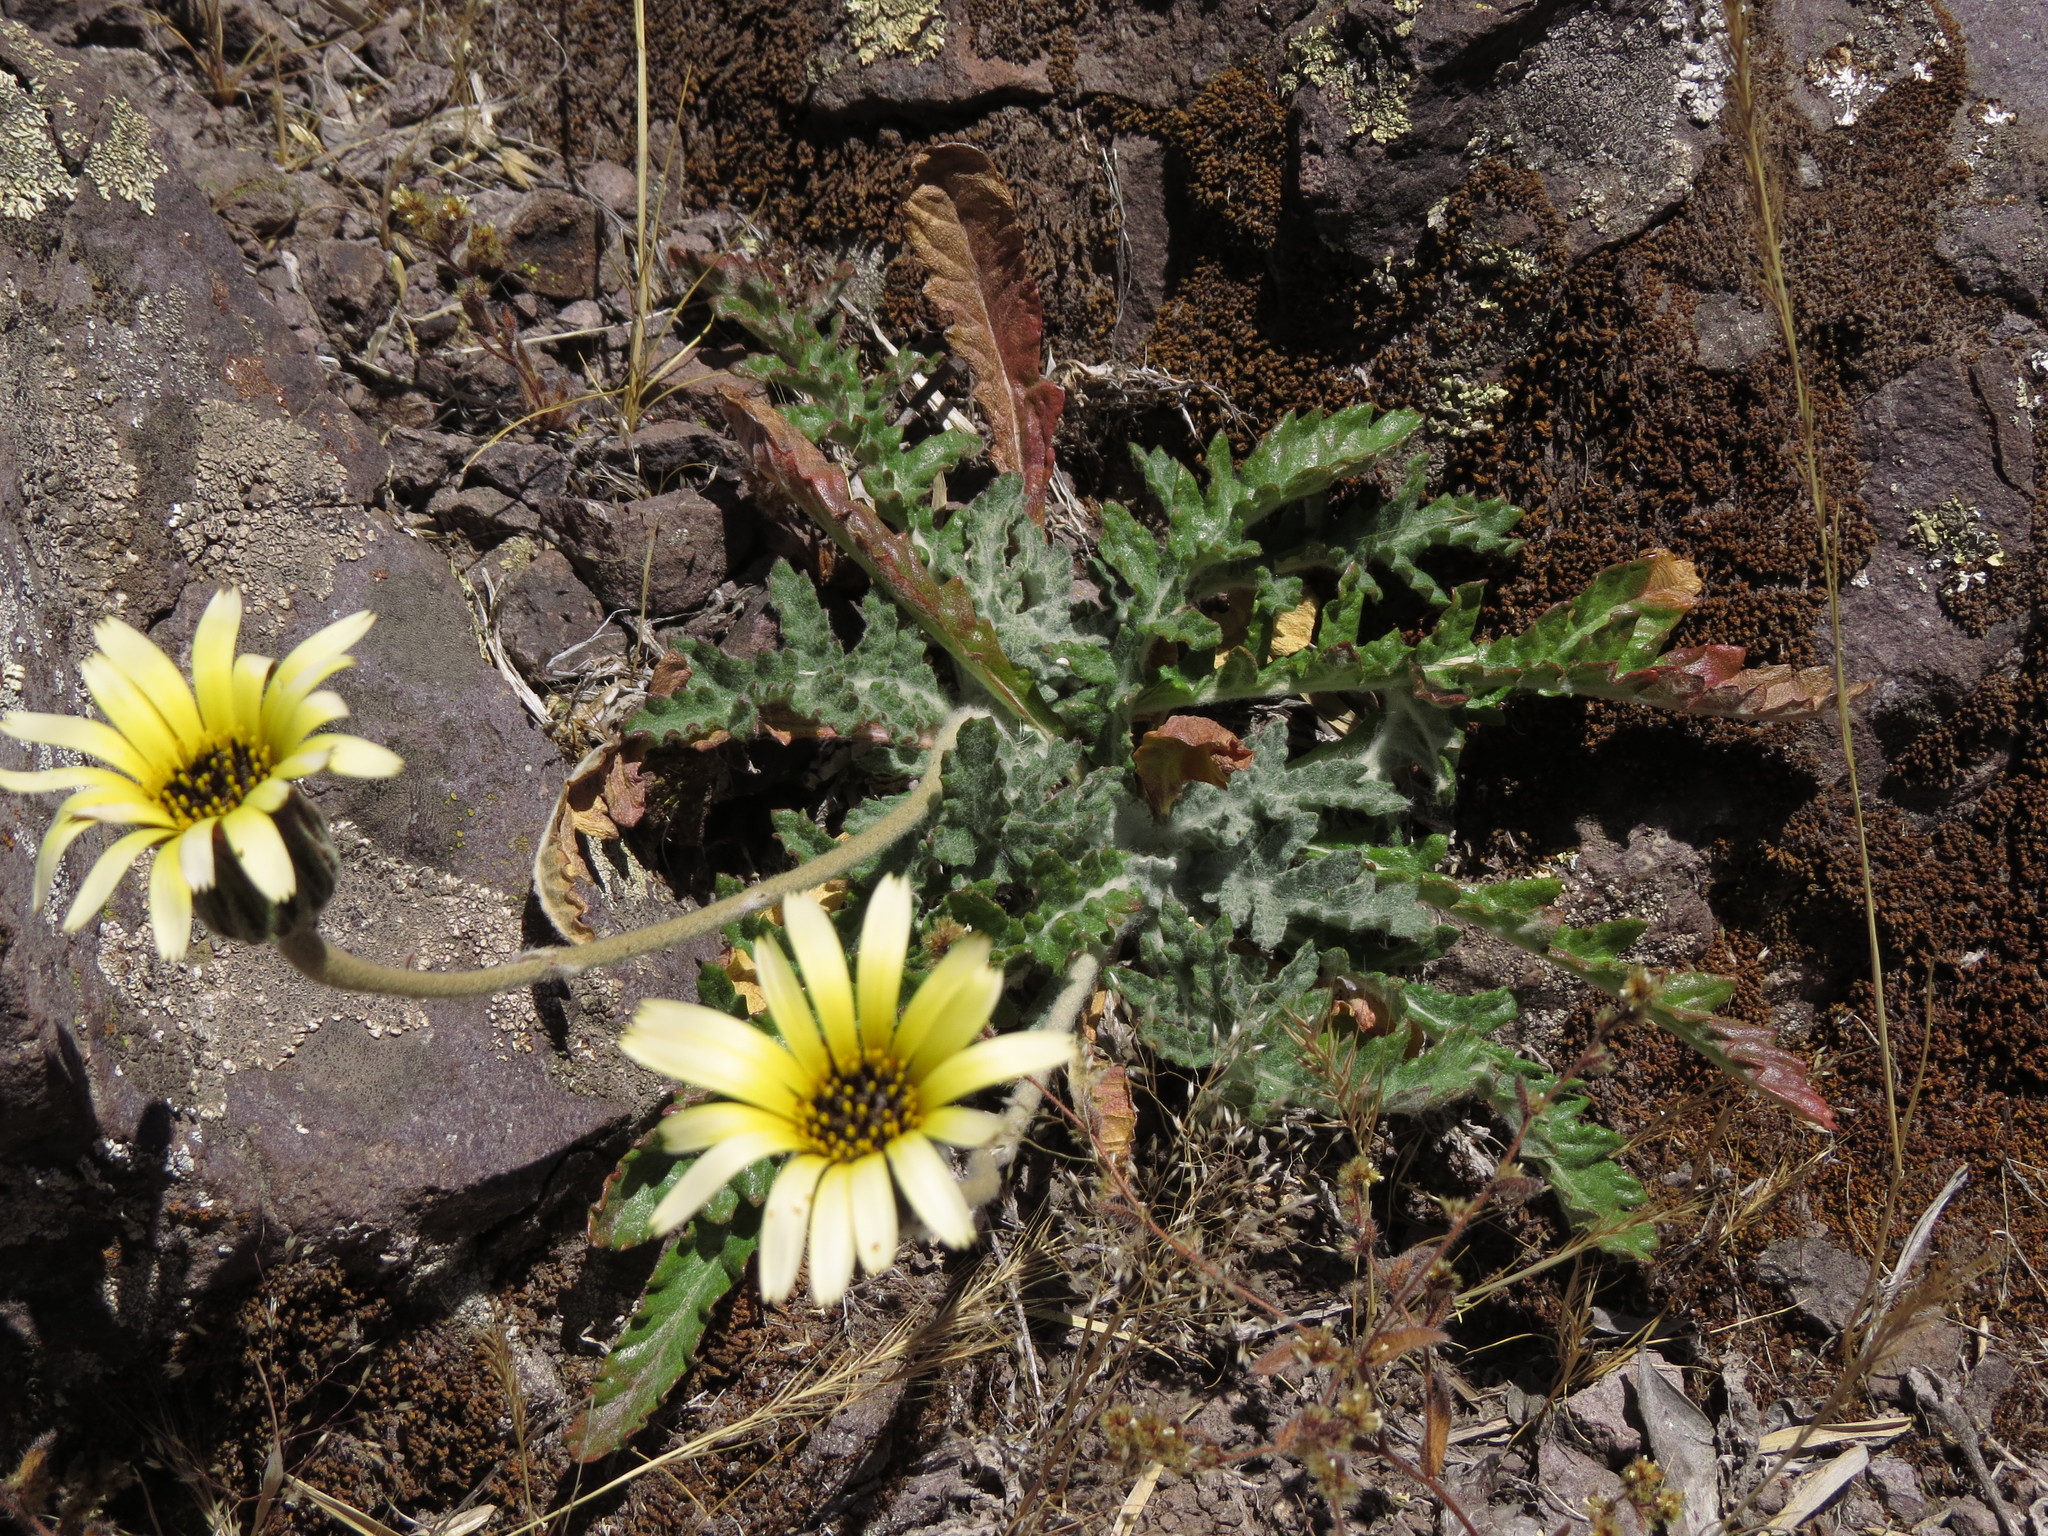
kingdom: Plantae
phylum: Tracheophyta
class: Magnoliopsida
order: Asterales
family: Asteraceae
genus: Trichocline
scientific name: Trichocline aurea
